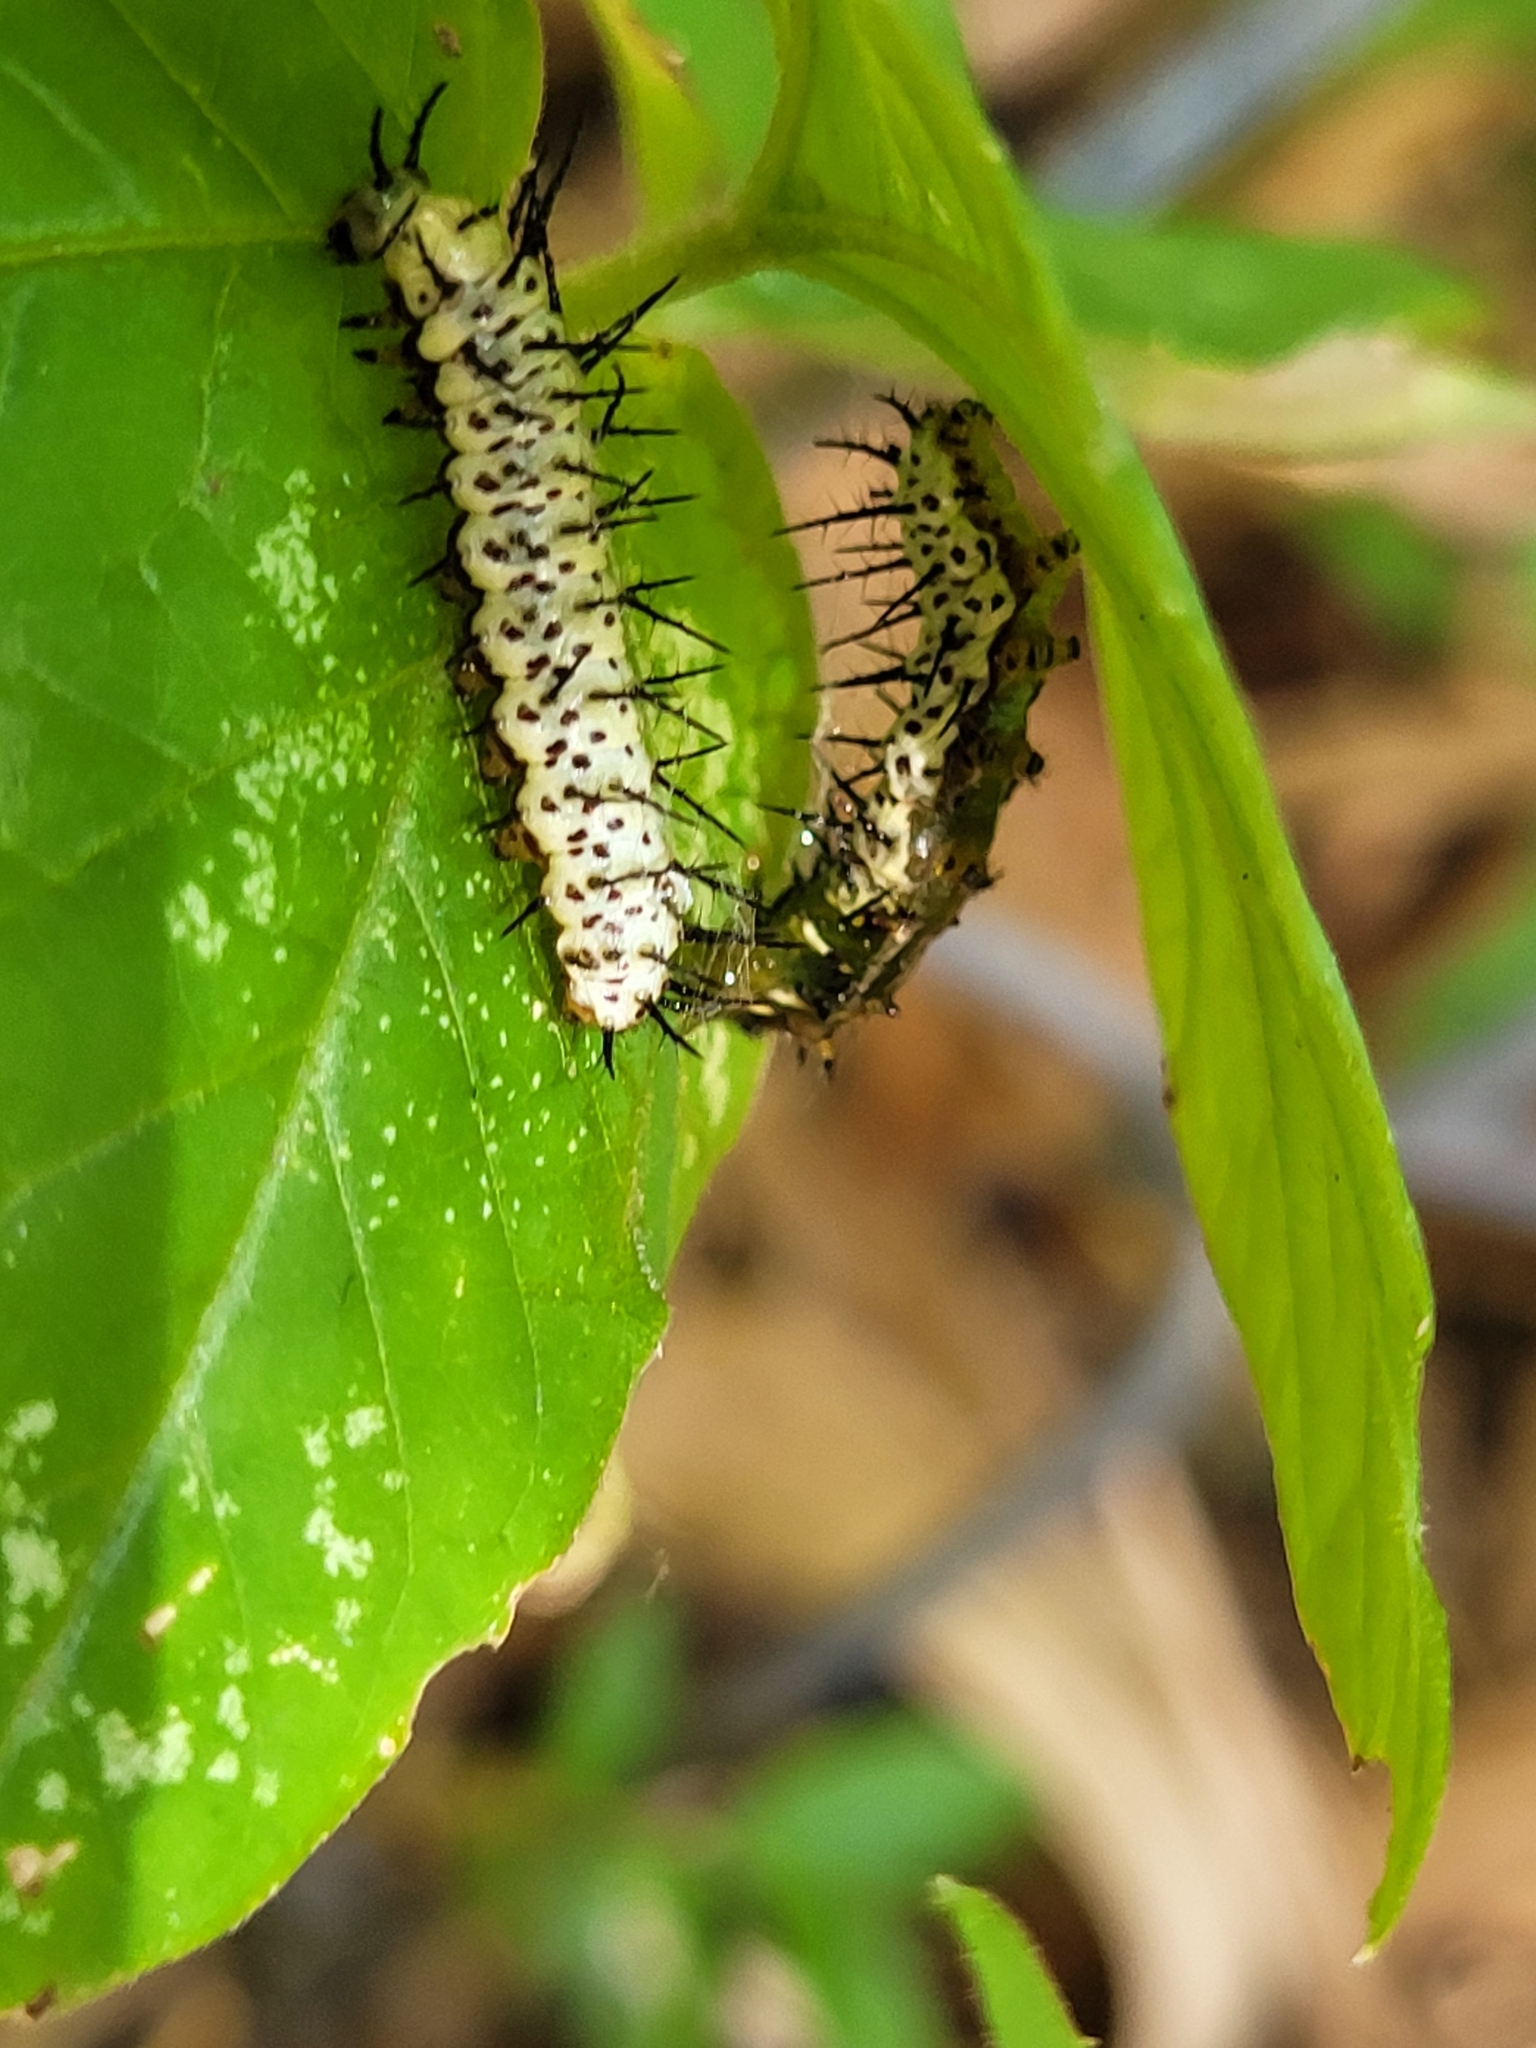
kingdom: Animalia
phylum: Arthropoda
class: Insecta
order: Lepidoptera
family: Nymphalidae
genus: Heliconius
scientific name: Heliconius charithonia
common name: Zebra long wing
